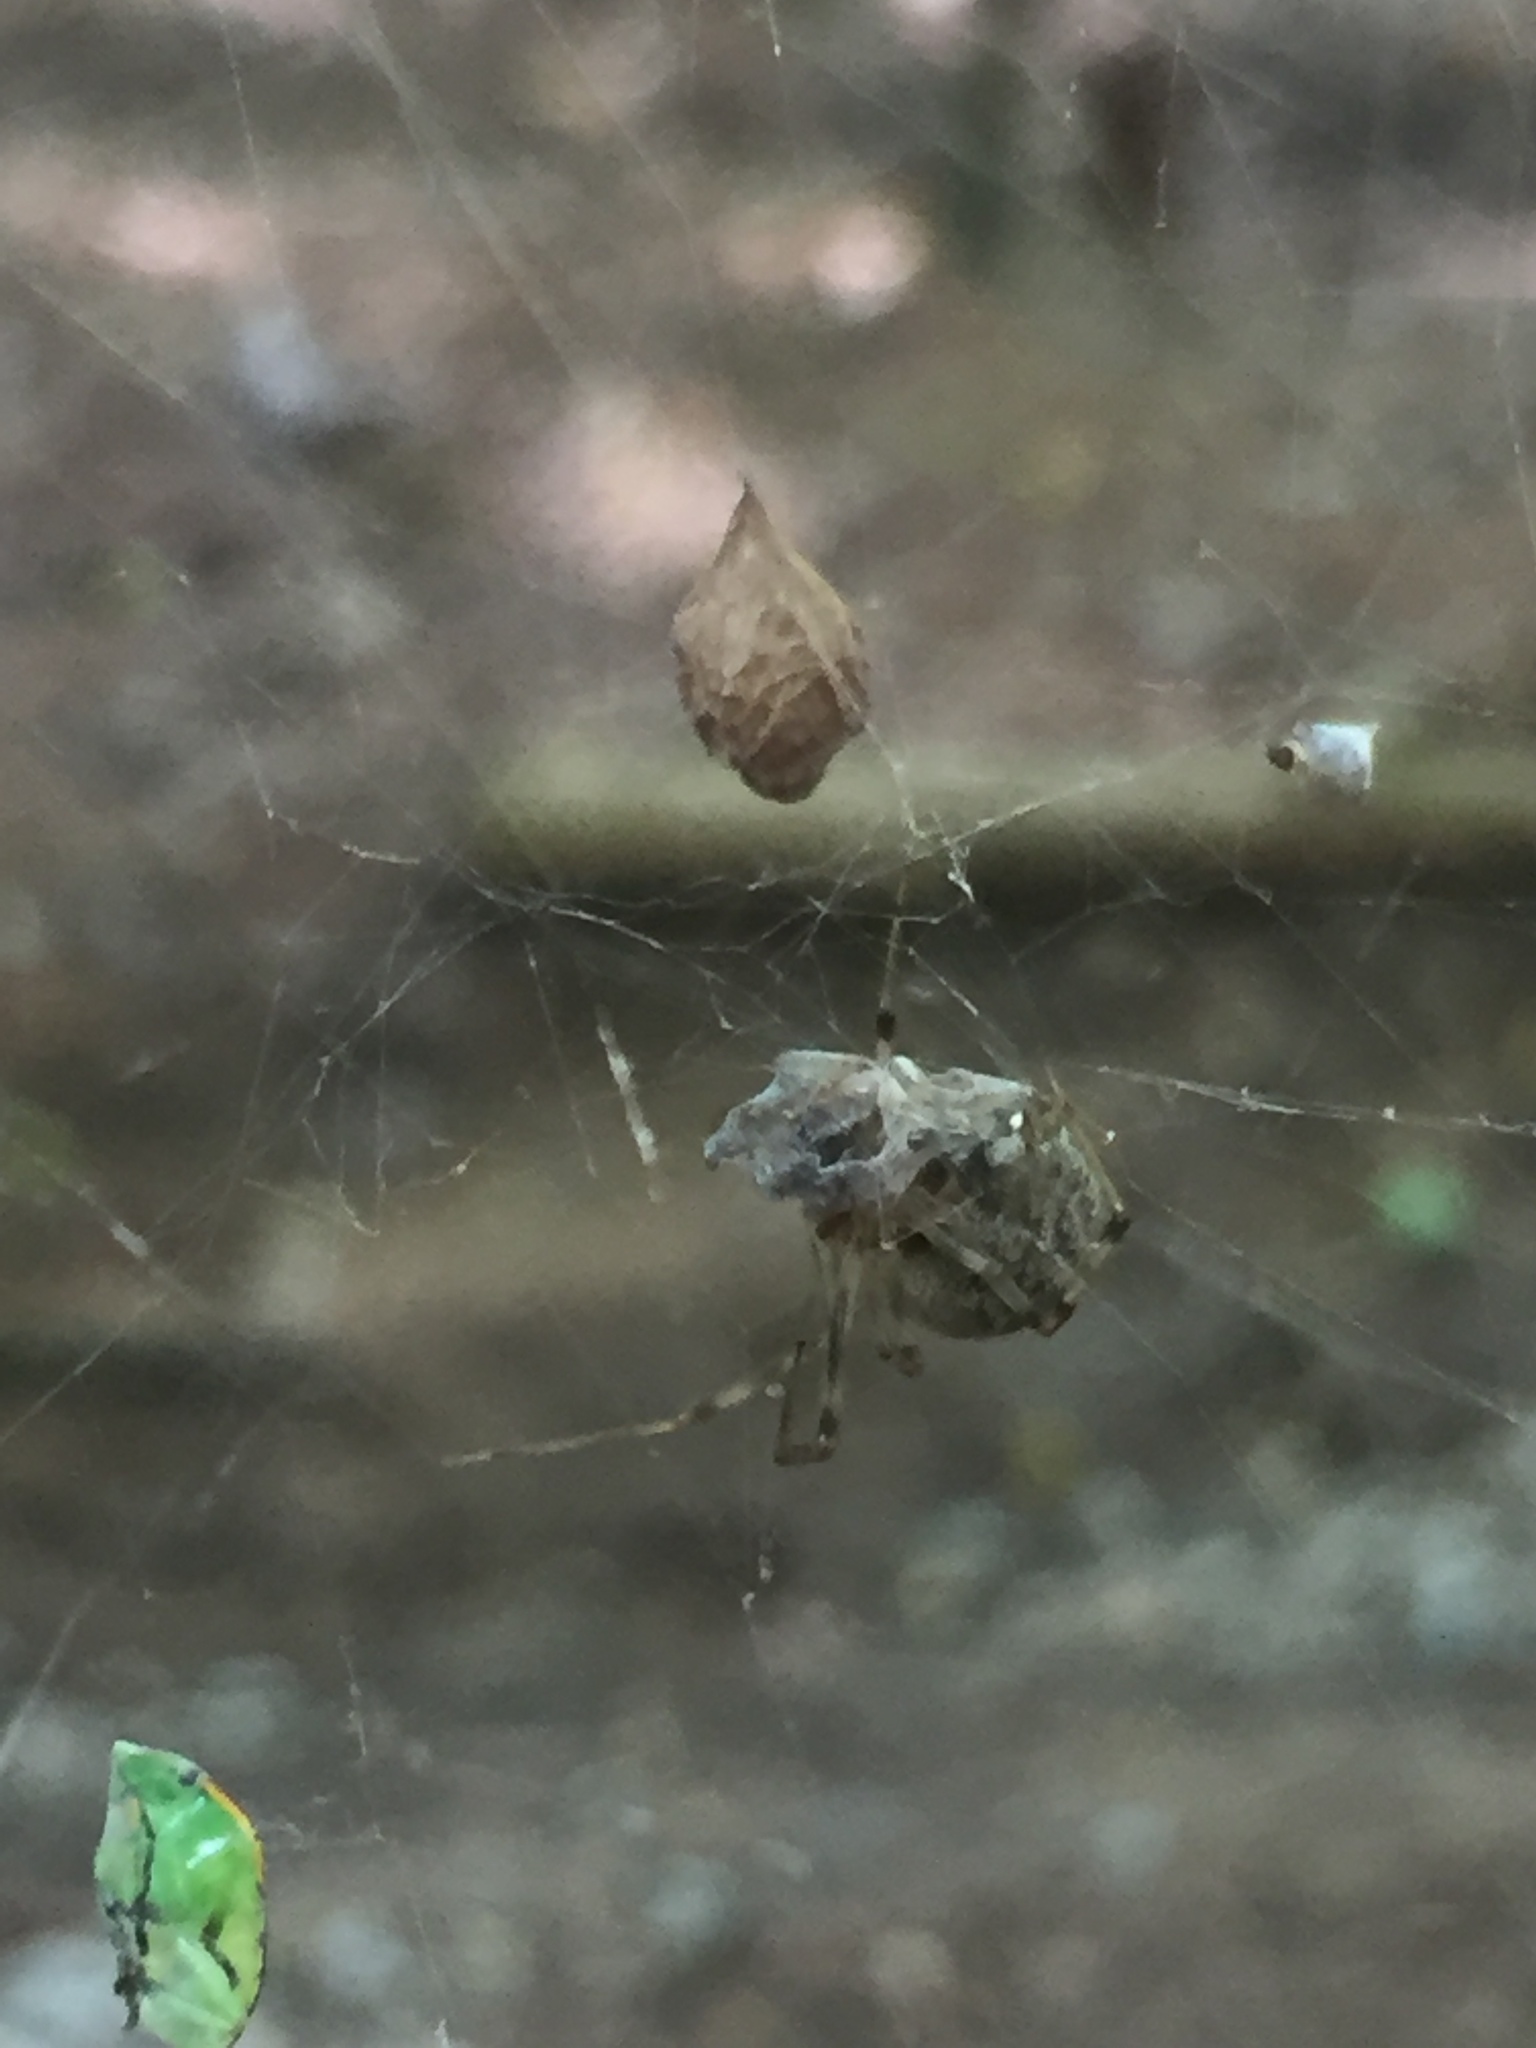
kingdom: Animalia
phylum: Arthropoda
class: Arachnida
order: Araneae
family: Theridiidae
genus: Parasteatoda
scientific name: Parasteatoda tepidariorum
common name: Common house spider
